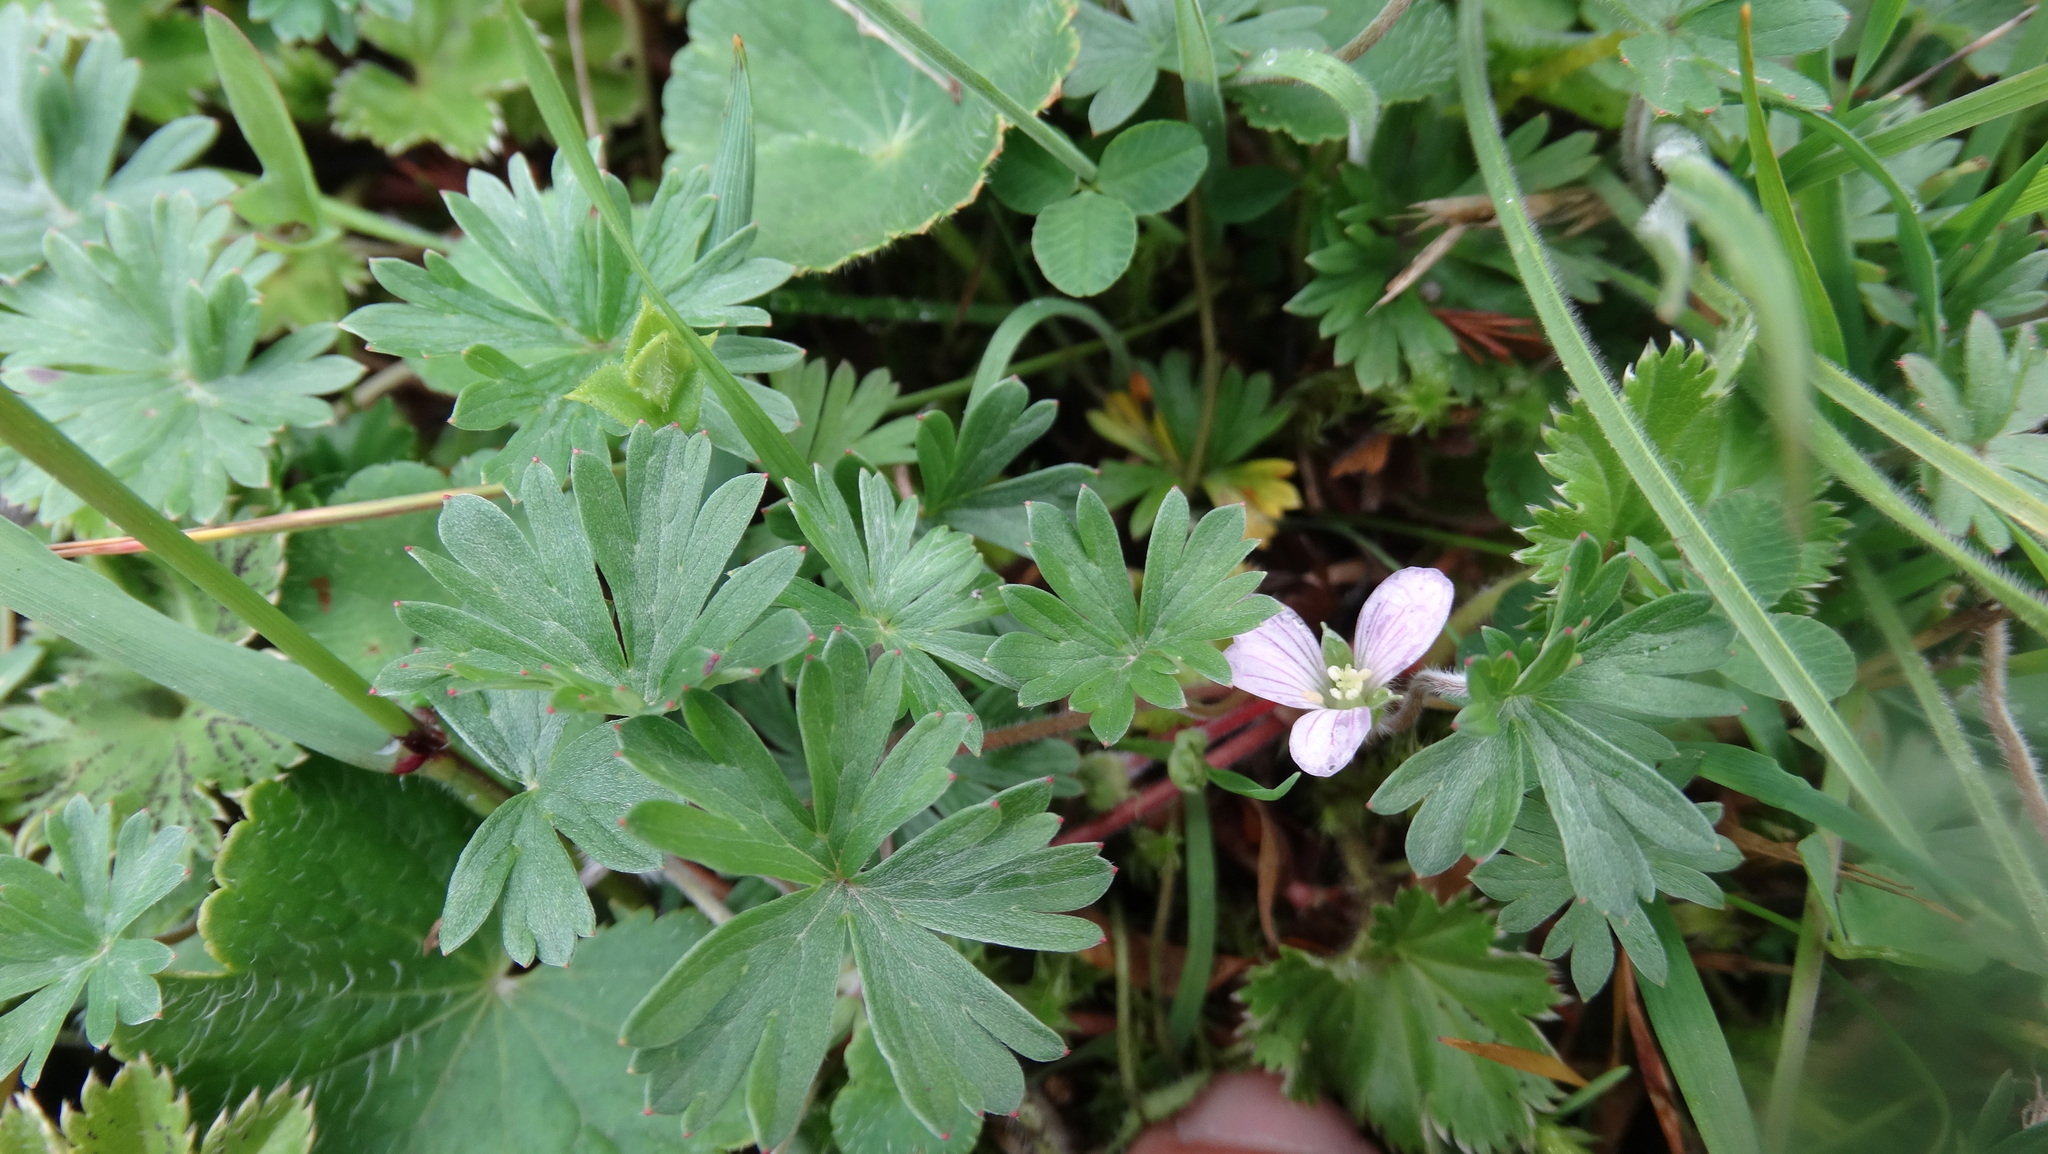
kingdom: Plantae
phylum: Tracheophyta
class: Magnoliopsida
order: Geraniales
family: Geraniaceae
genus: Geranium
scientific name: Geranium diffusum
